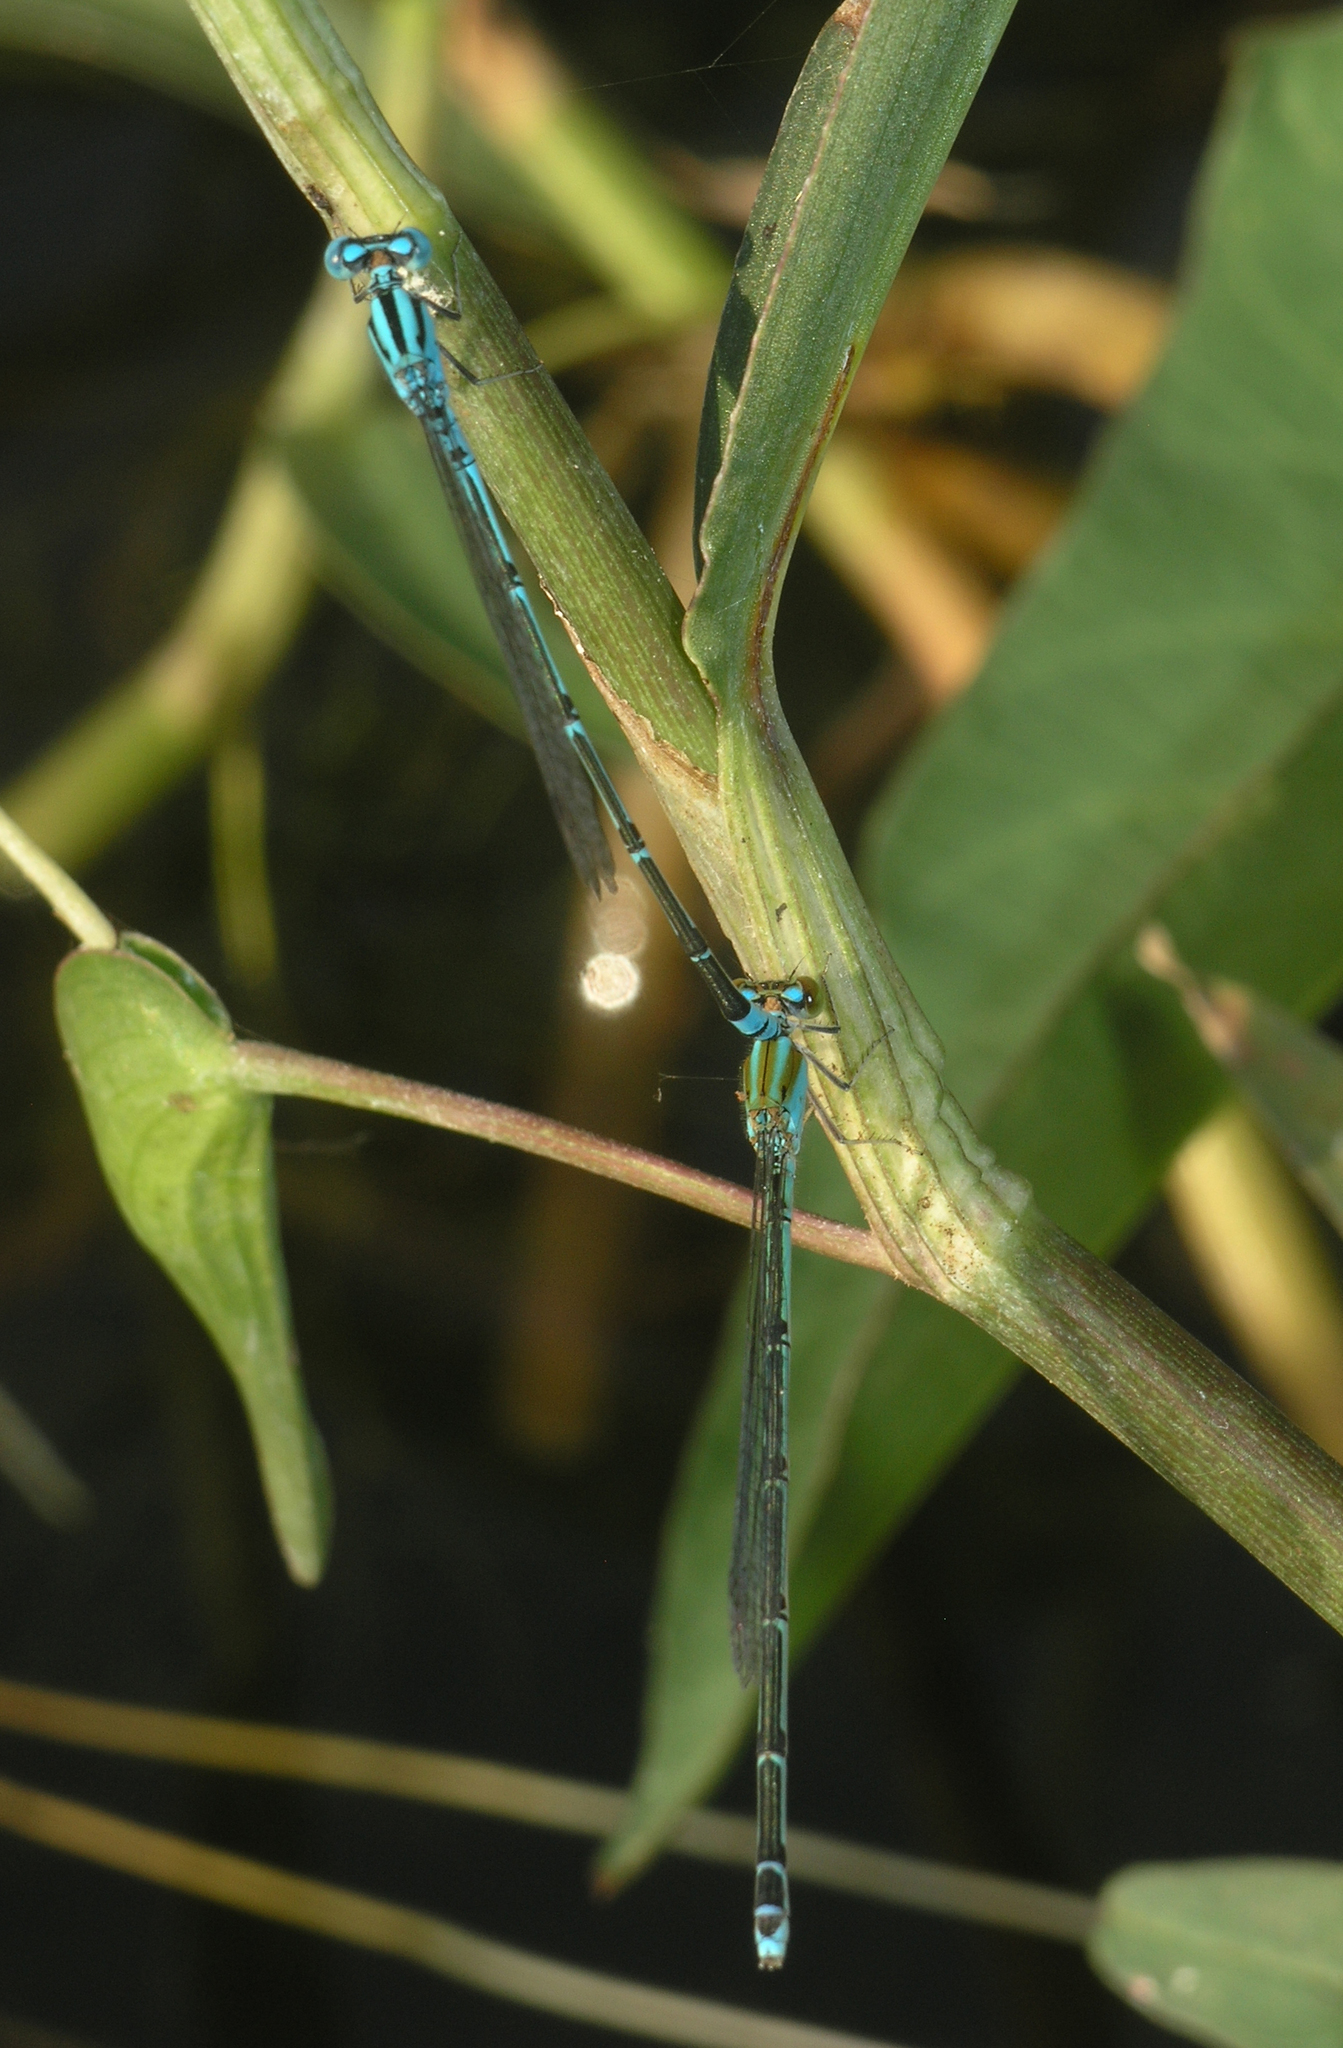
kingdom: Animalia
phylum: Arthropoda
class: Insecta
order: Odonata
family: Coenagrionidae
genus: Pseudagrion
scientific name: Pseudagrion microcephalum
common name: Blue riverdamsel
